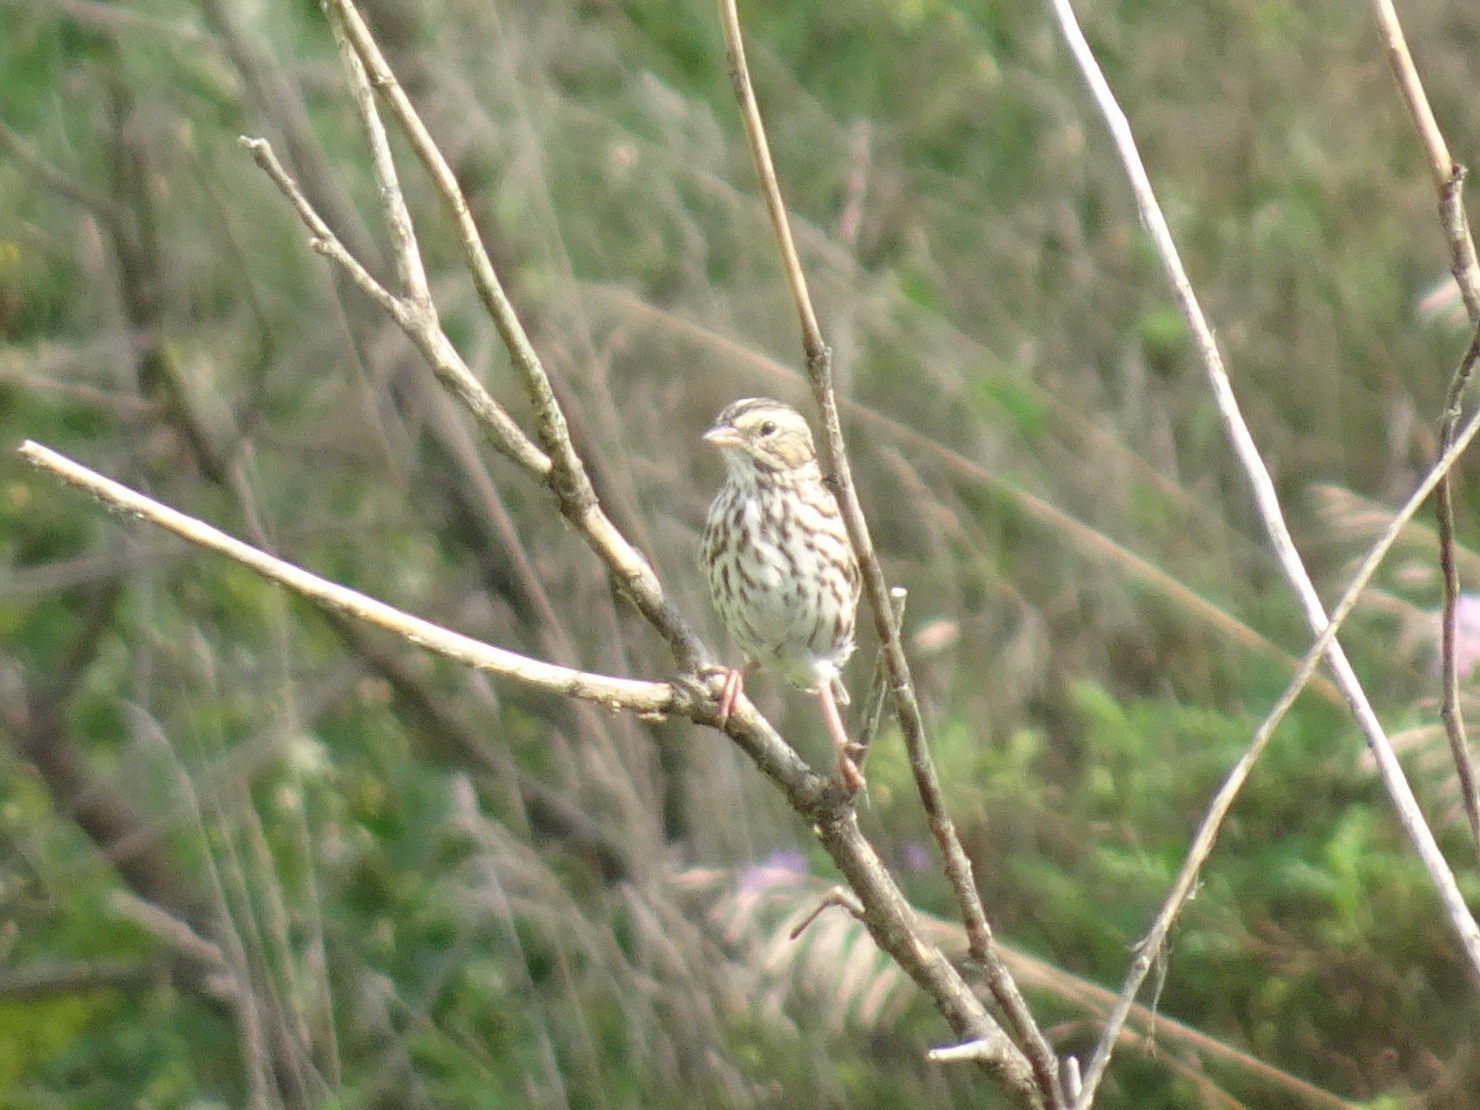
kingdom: Animalia
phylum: Chordata
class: Aves
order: Passeriformes
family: Passerellidae
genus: Passerculus
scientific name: Passerculus sandwichensis
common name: Savannah sparrow
